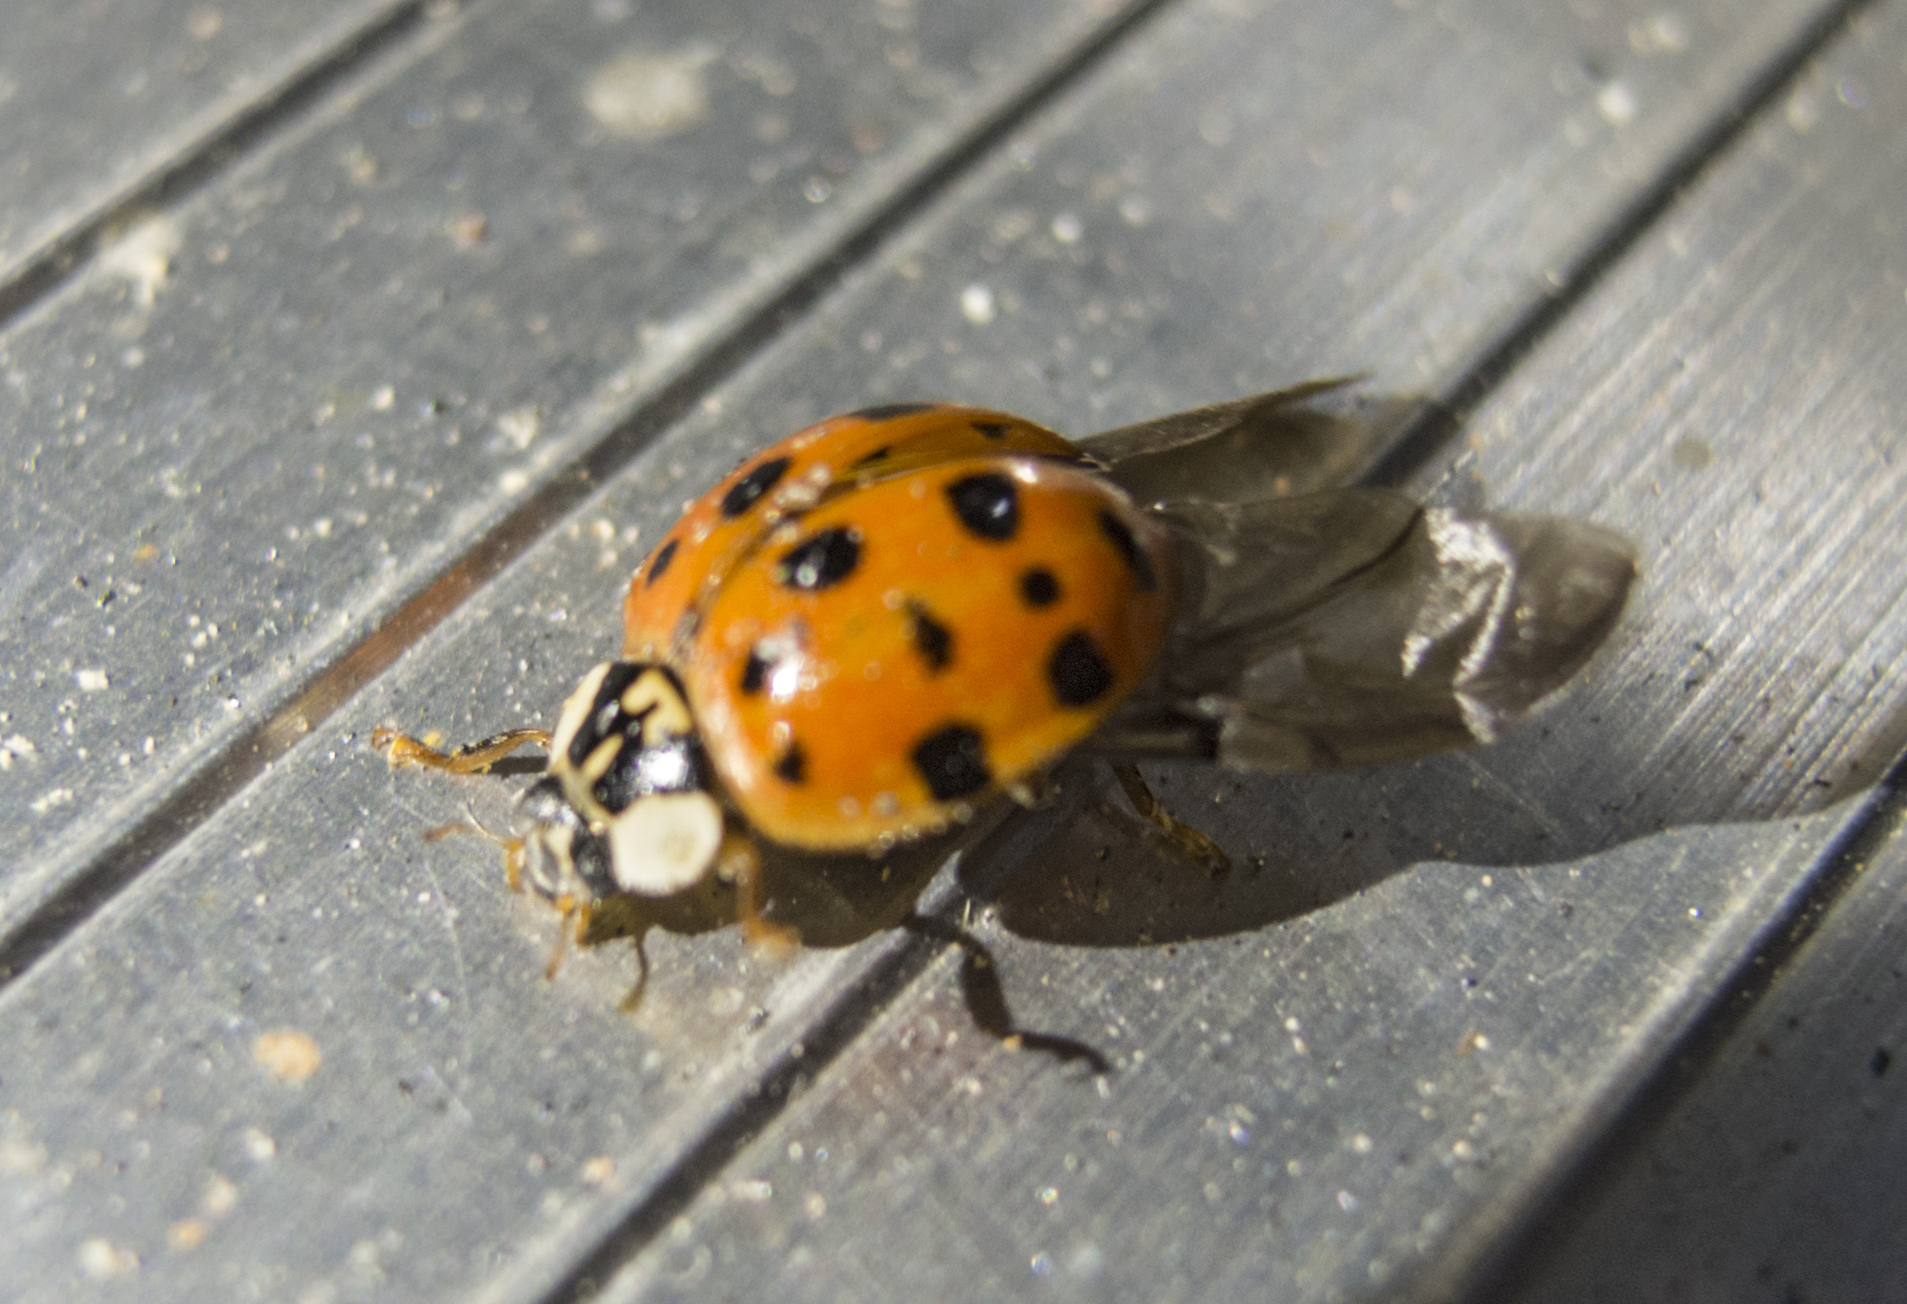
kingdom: Animalia
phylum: Arthropoda
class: Insecta
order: Coleoptera
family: Coccinellidae
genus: Harmonia
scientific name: Harmonia axyridis
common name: Harlequin ladybird
